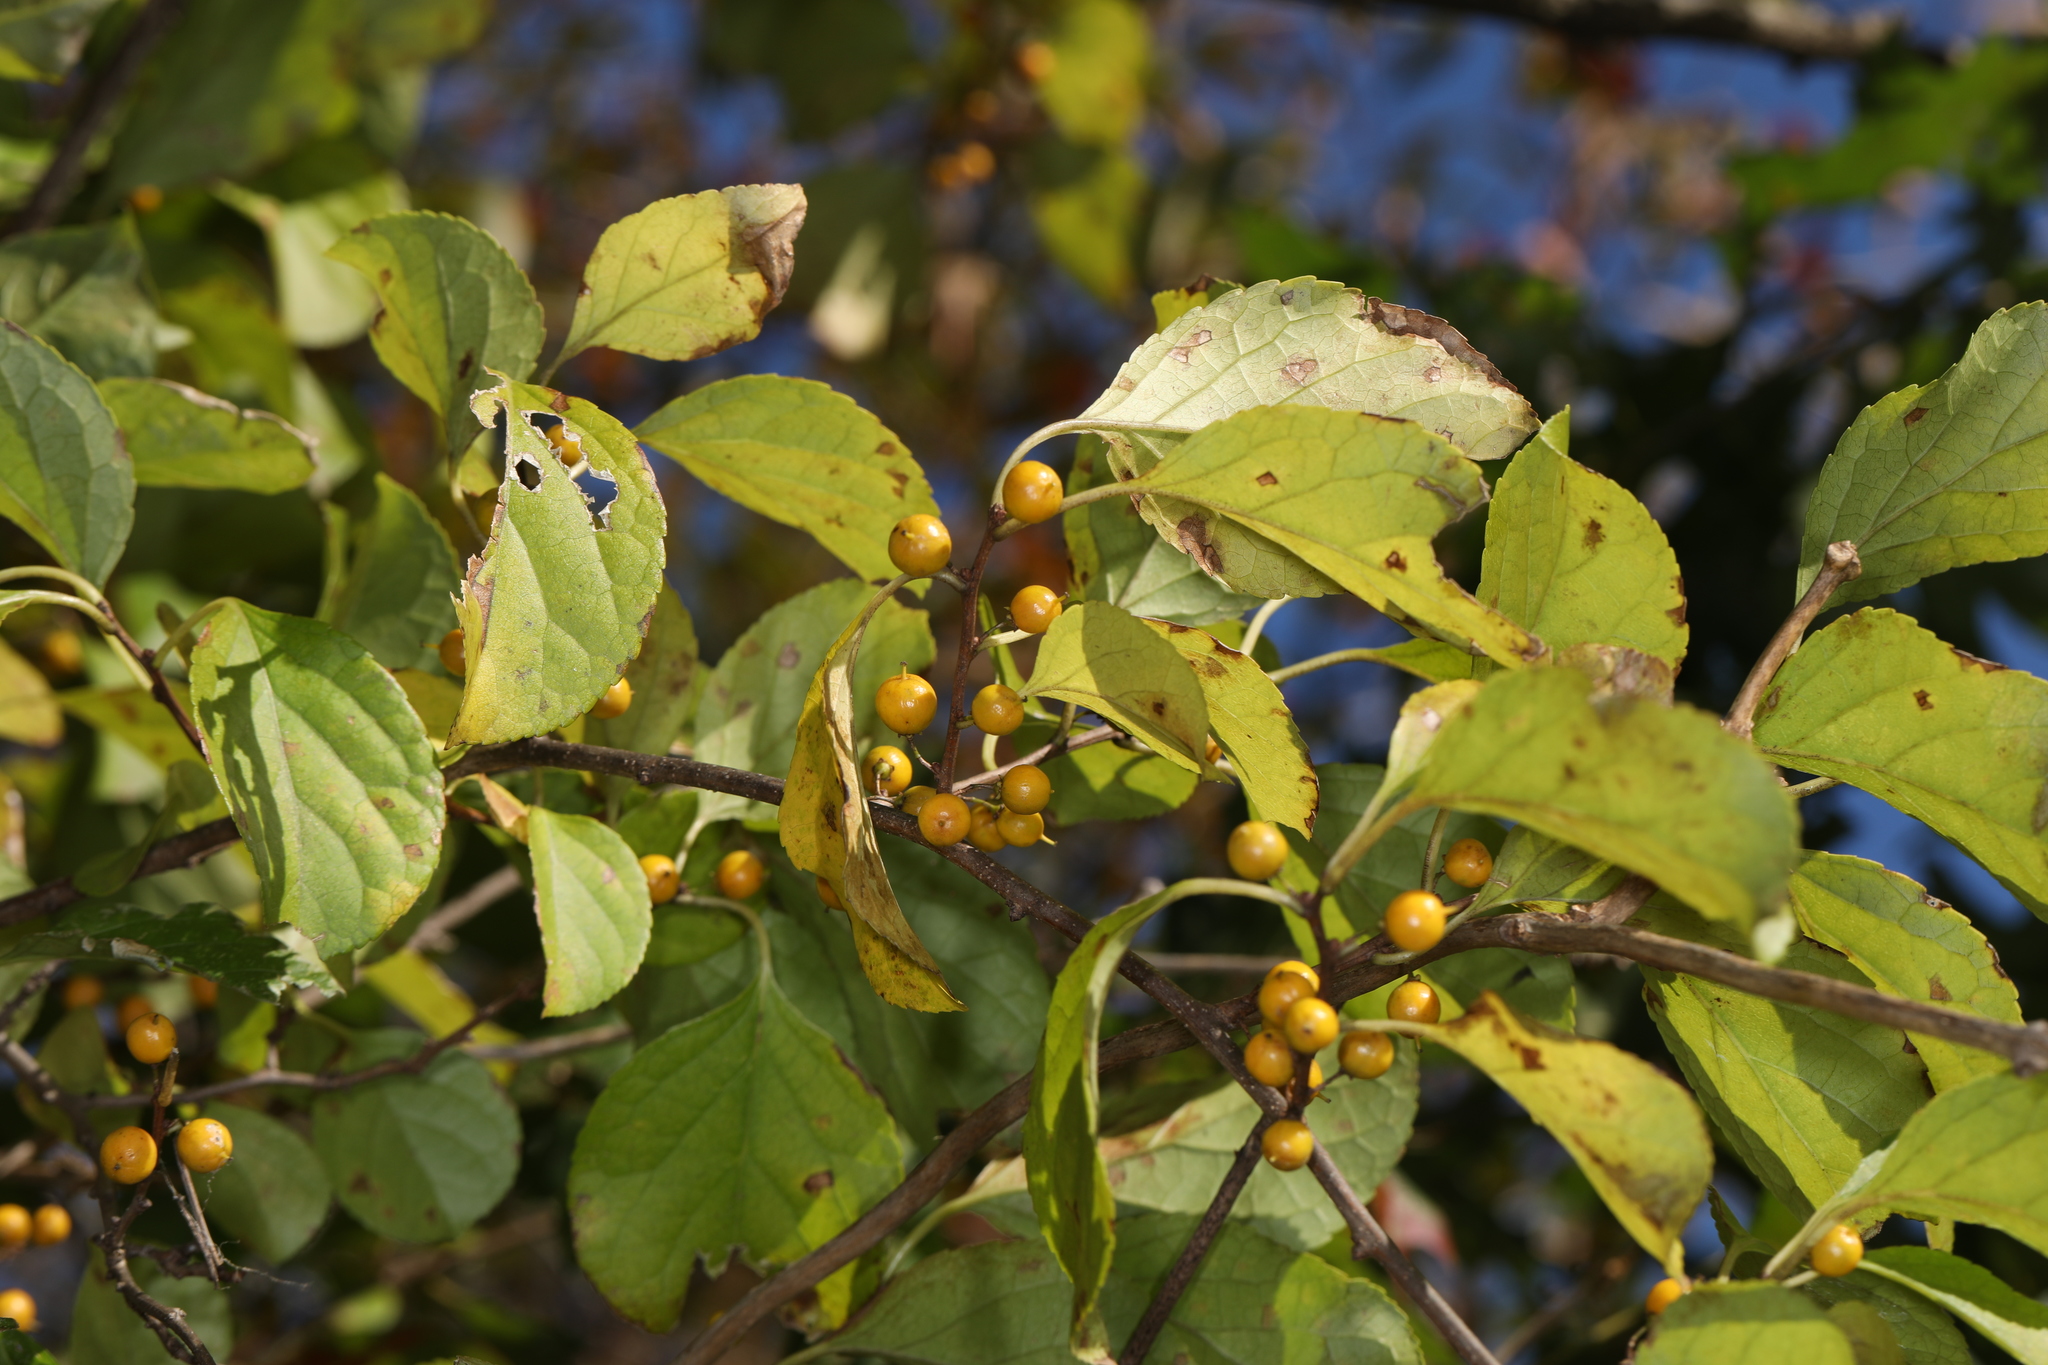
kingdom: Plantae
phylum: Tracheophyta
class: Magnoliopsida
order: Celastrales
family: Celastraceae
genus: Celastrus
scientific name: Celastrus orbiculatus
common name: Oriental bittersweet
